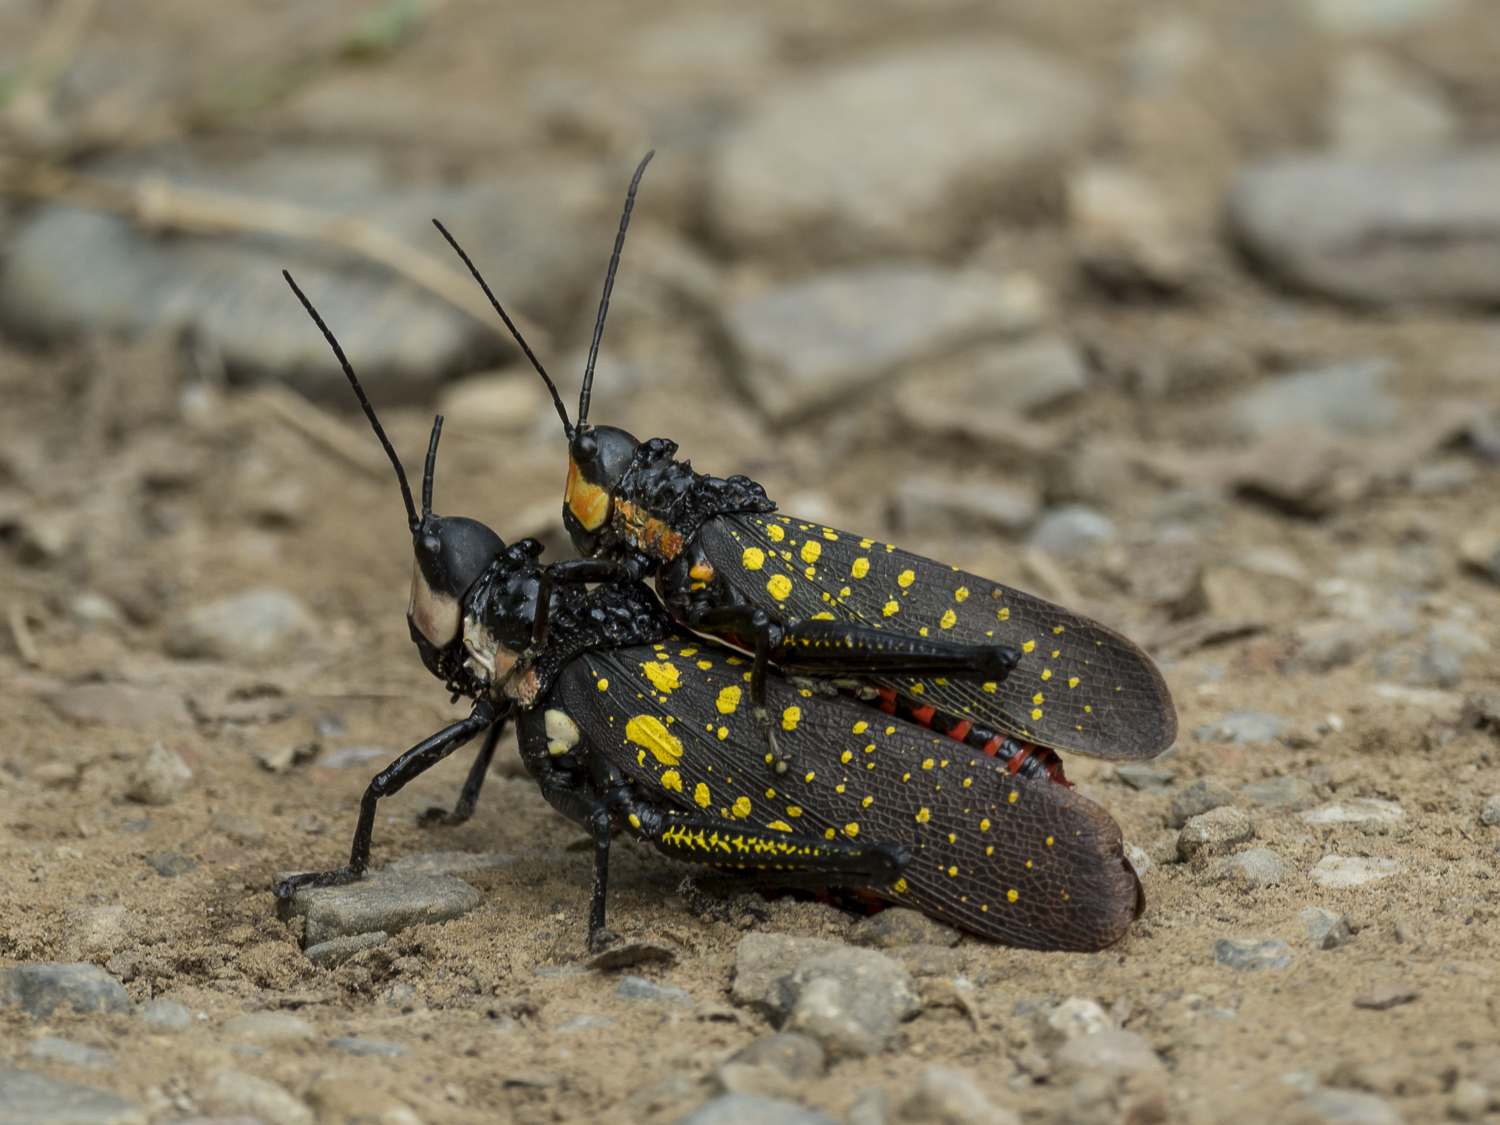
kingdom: Animalia
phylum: Arthropoda
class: Insecta
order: Orthoptera
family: Pyrgomorphidae
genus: Aularches
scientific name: Aularches miliaris
